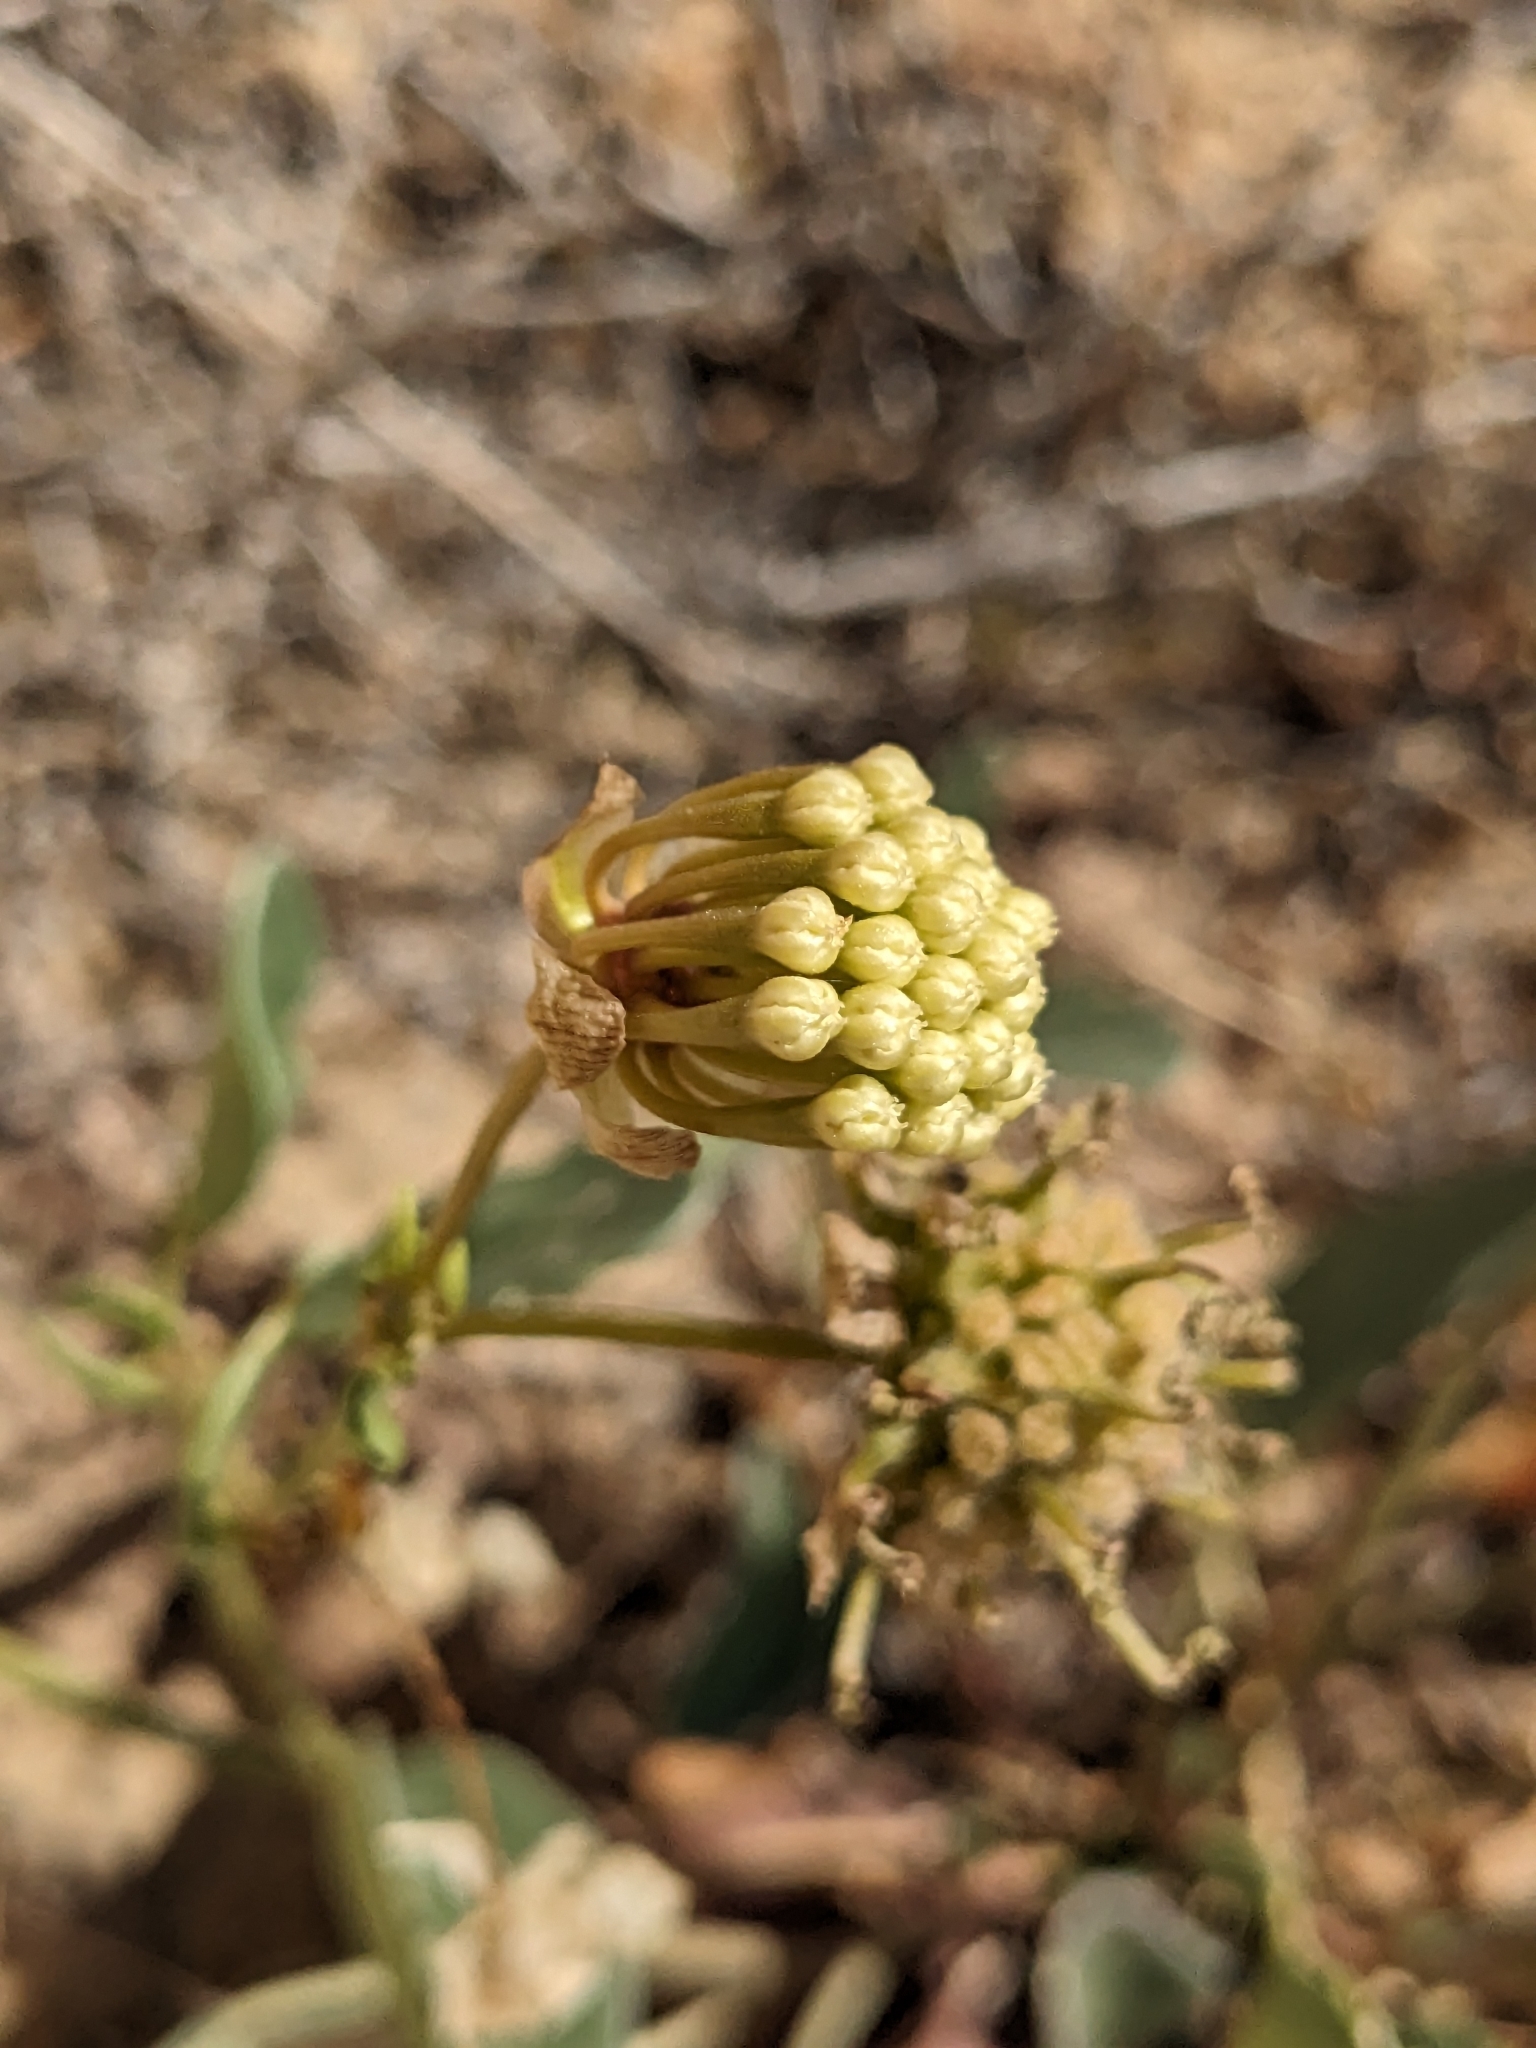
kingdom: Plantae
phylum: Tracheophyta
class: Magnoliopsida
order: Caryophyllales
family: Nyctaginaceae
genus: Abronia
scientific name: Abronia elliptica
